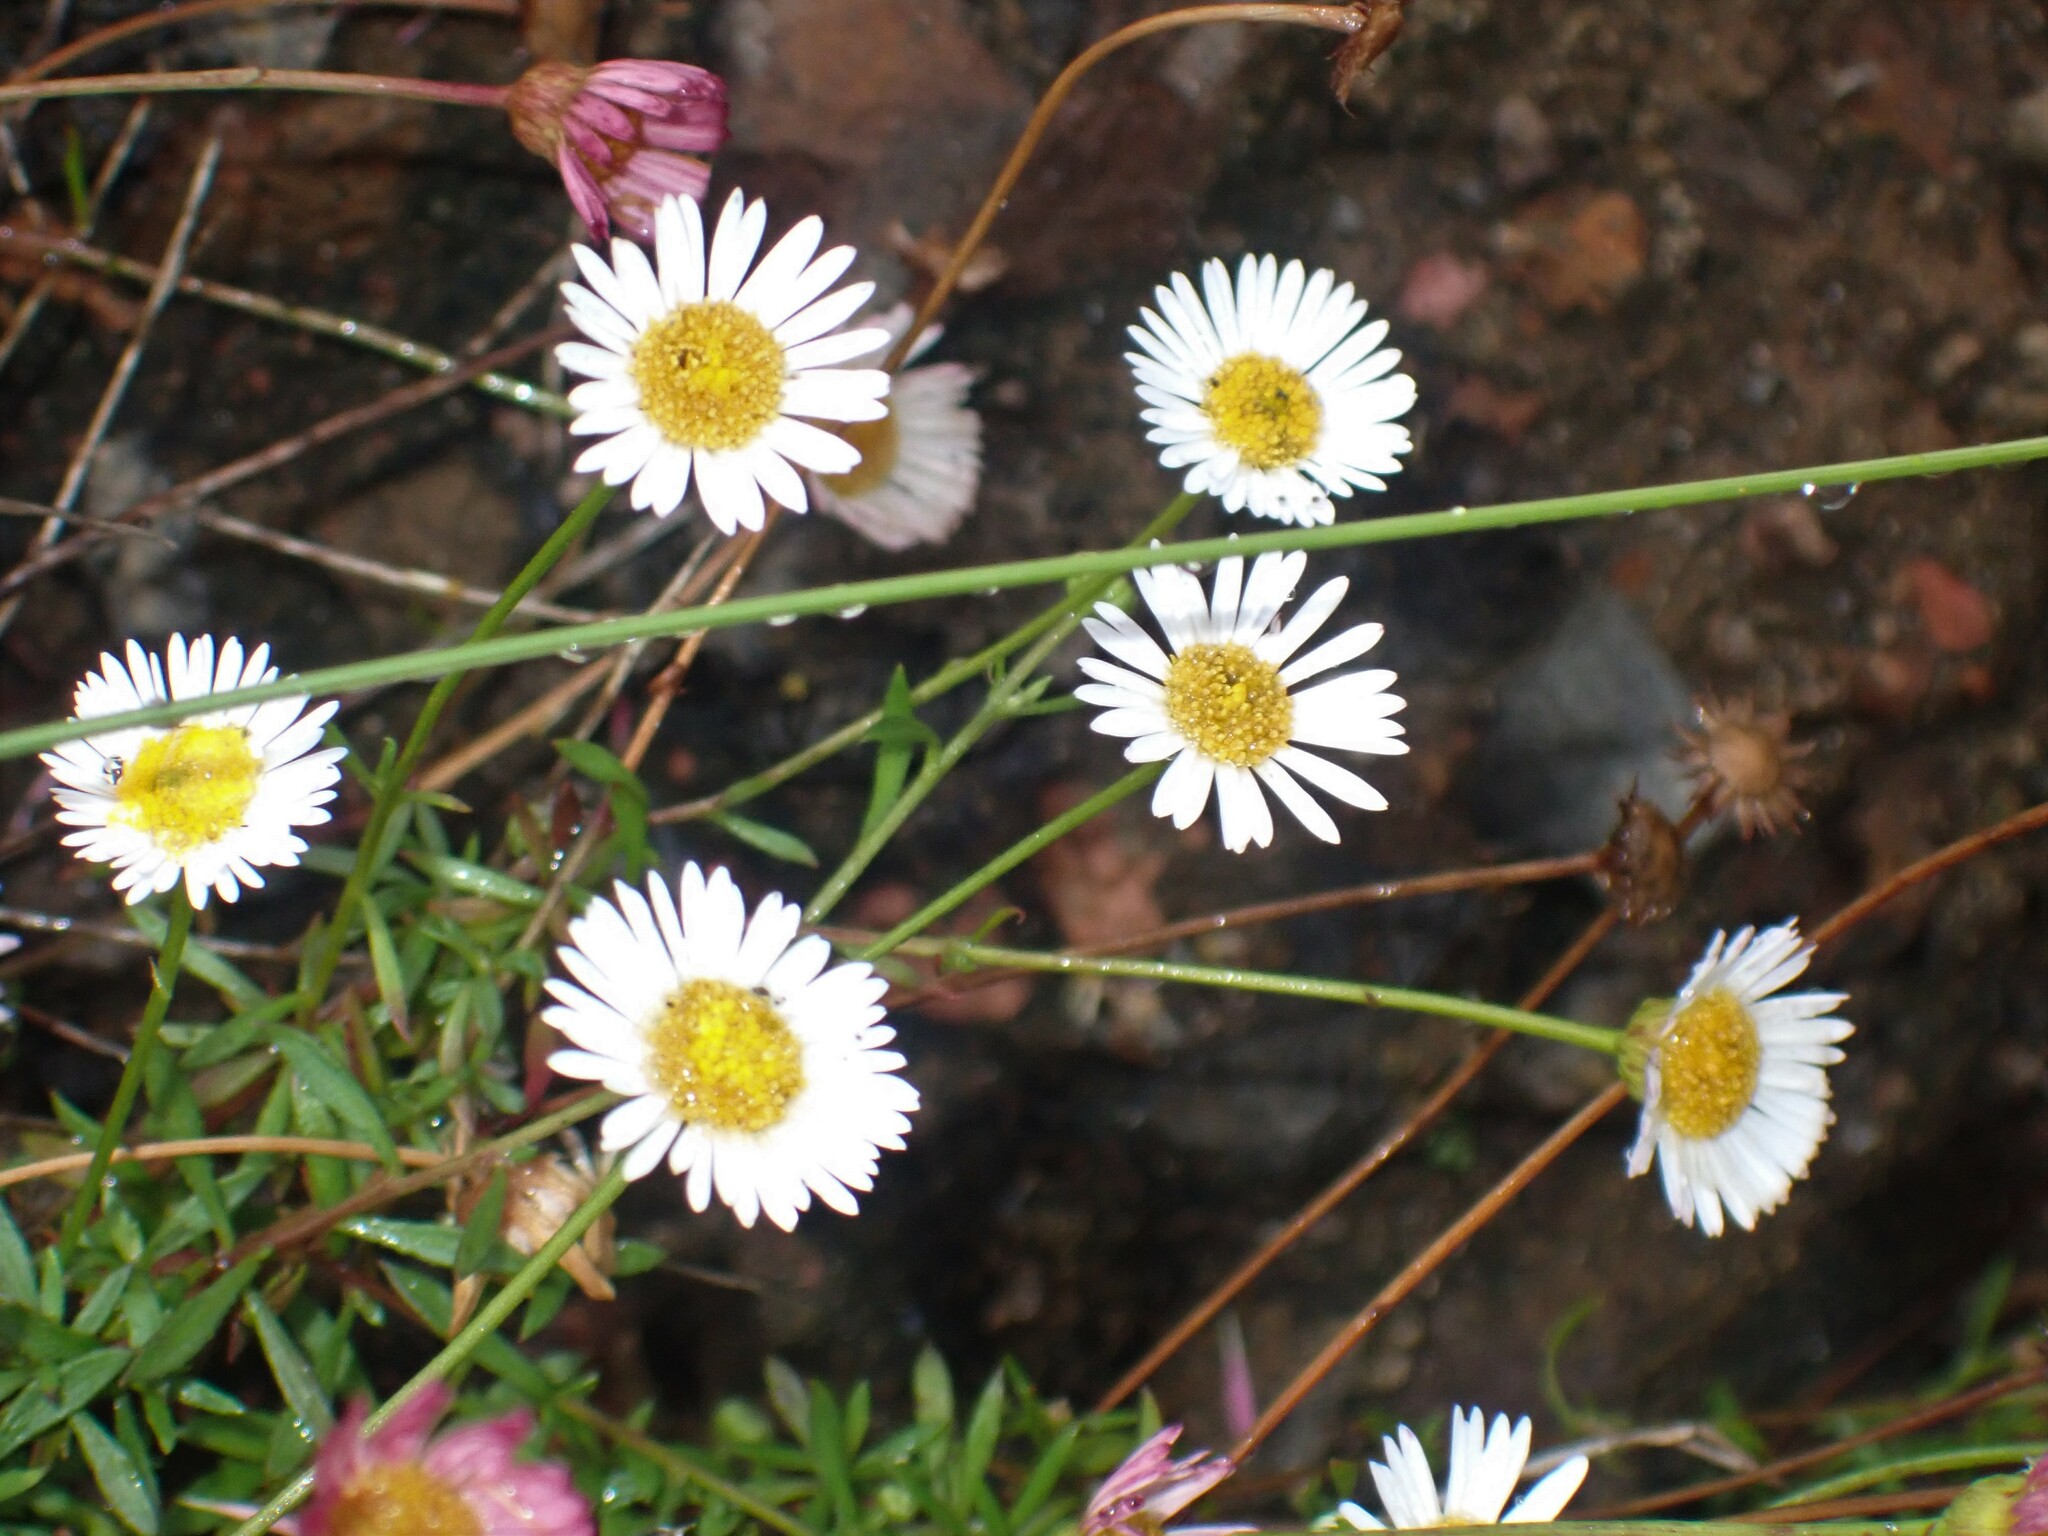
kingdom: Plantae
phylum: Tracheophyta
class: Magnoliopsida
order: Asterales
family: Asteraceae
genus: Erigeron
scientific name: Erigeron karvinskianus
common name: Mexican fleabane
